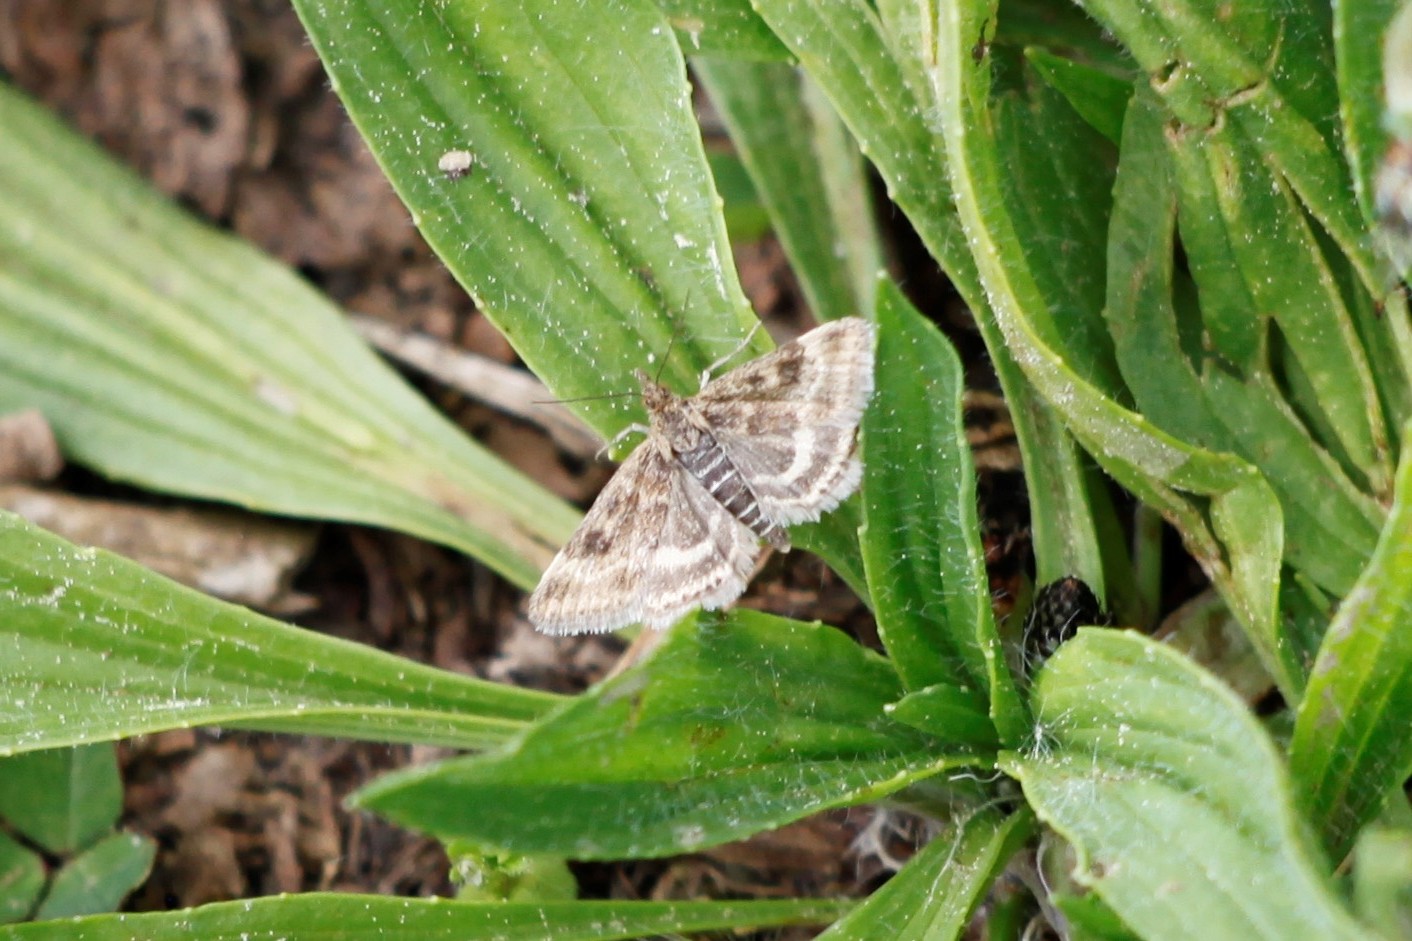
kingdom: Animalia
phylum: Arthropoda
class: Insecta
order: Lepidoptera
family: Crambidae
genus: Pyrausta
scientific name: Pyrausta despicata
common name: Straw-barred pearl
